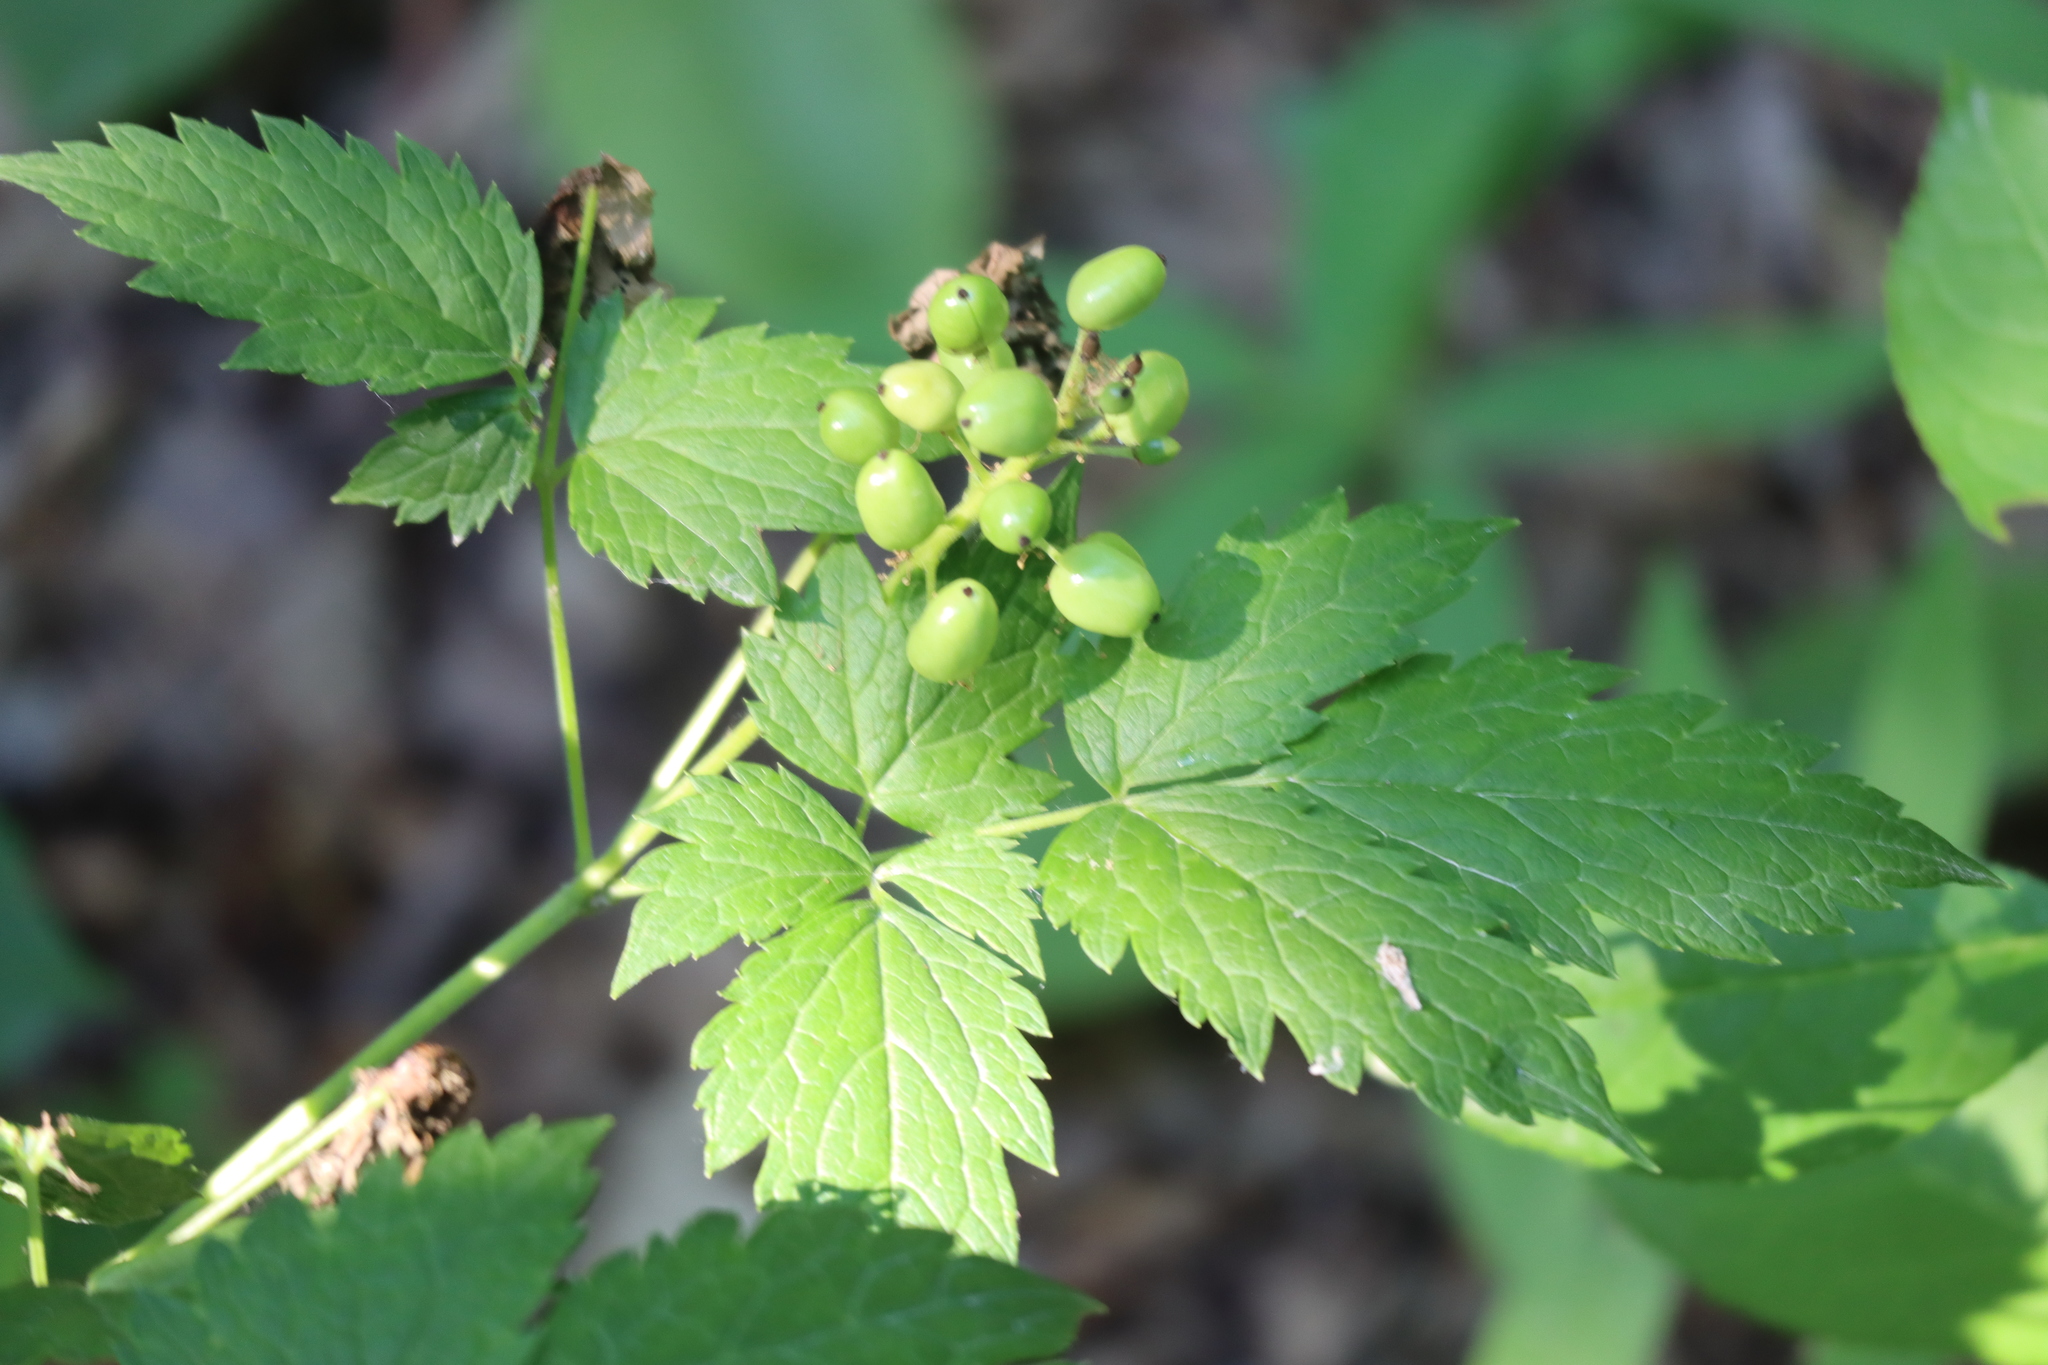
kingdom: Plantae
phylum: Tracheophyta
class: Magnoliopsida
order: Ranunculales
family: Ranunculaceae
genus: Actaea
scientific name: Actaea rubra
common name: Red baneberry
